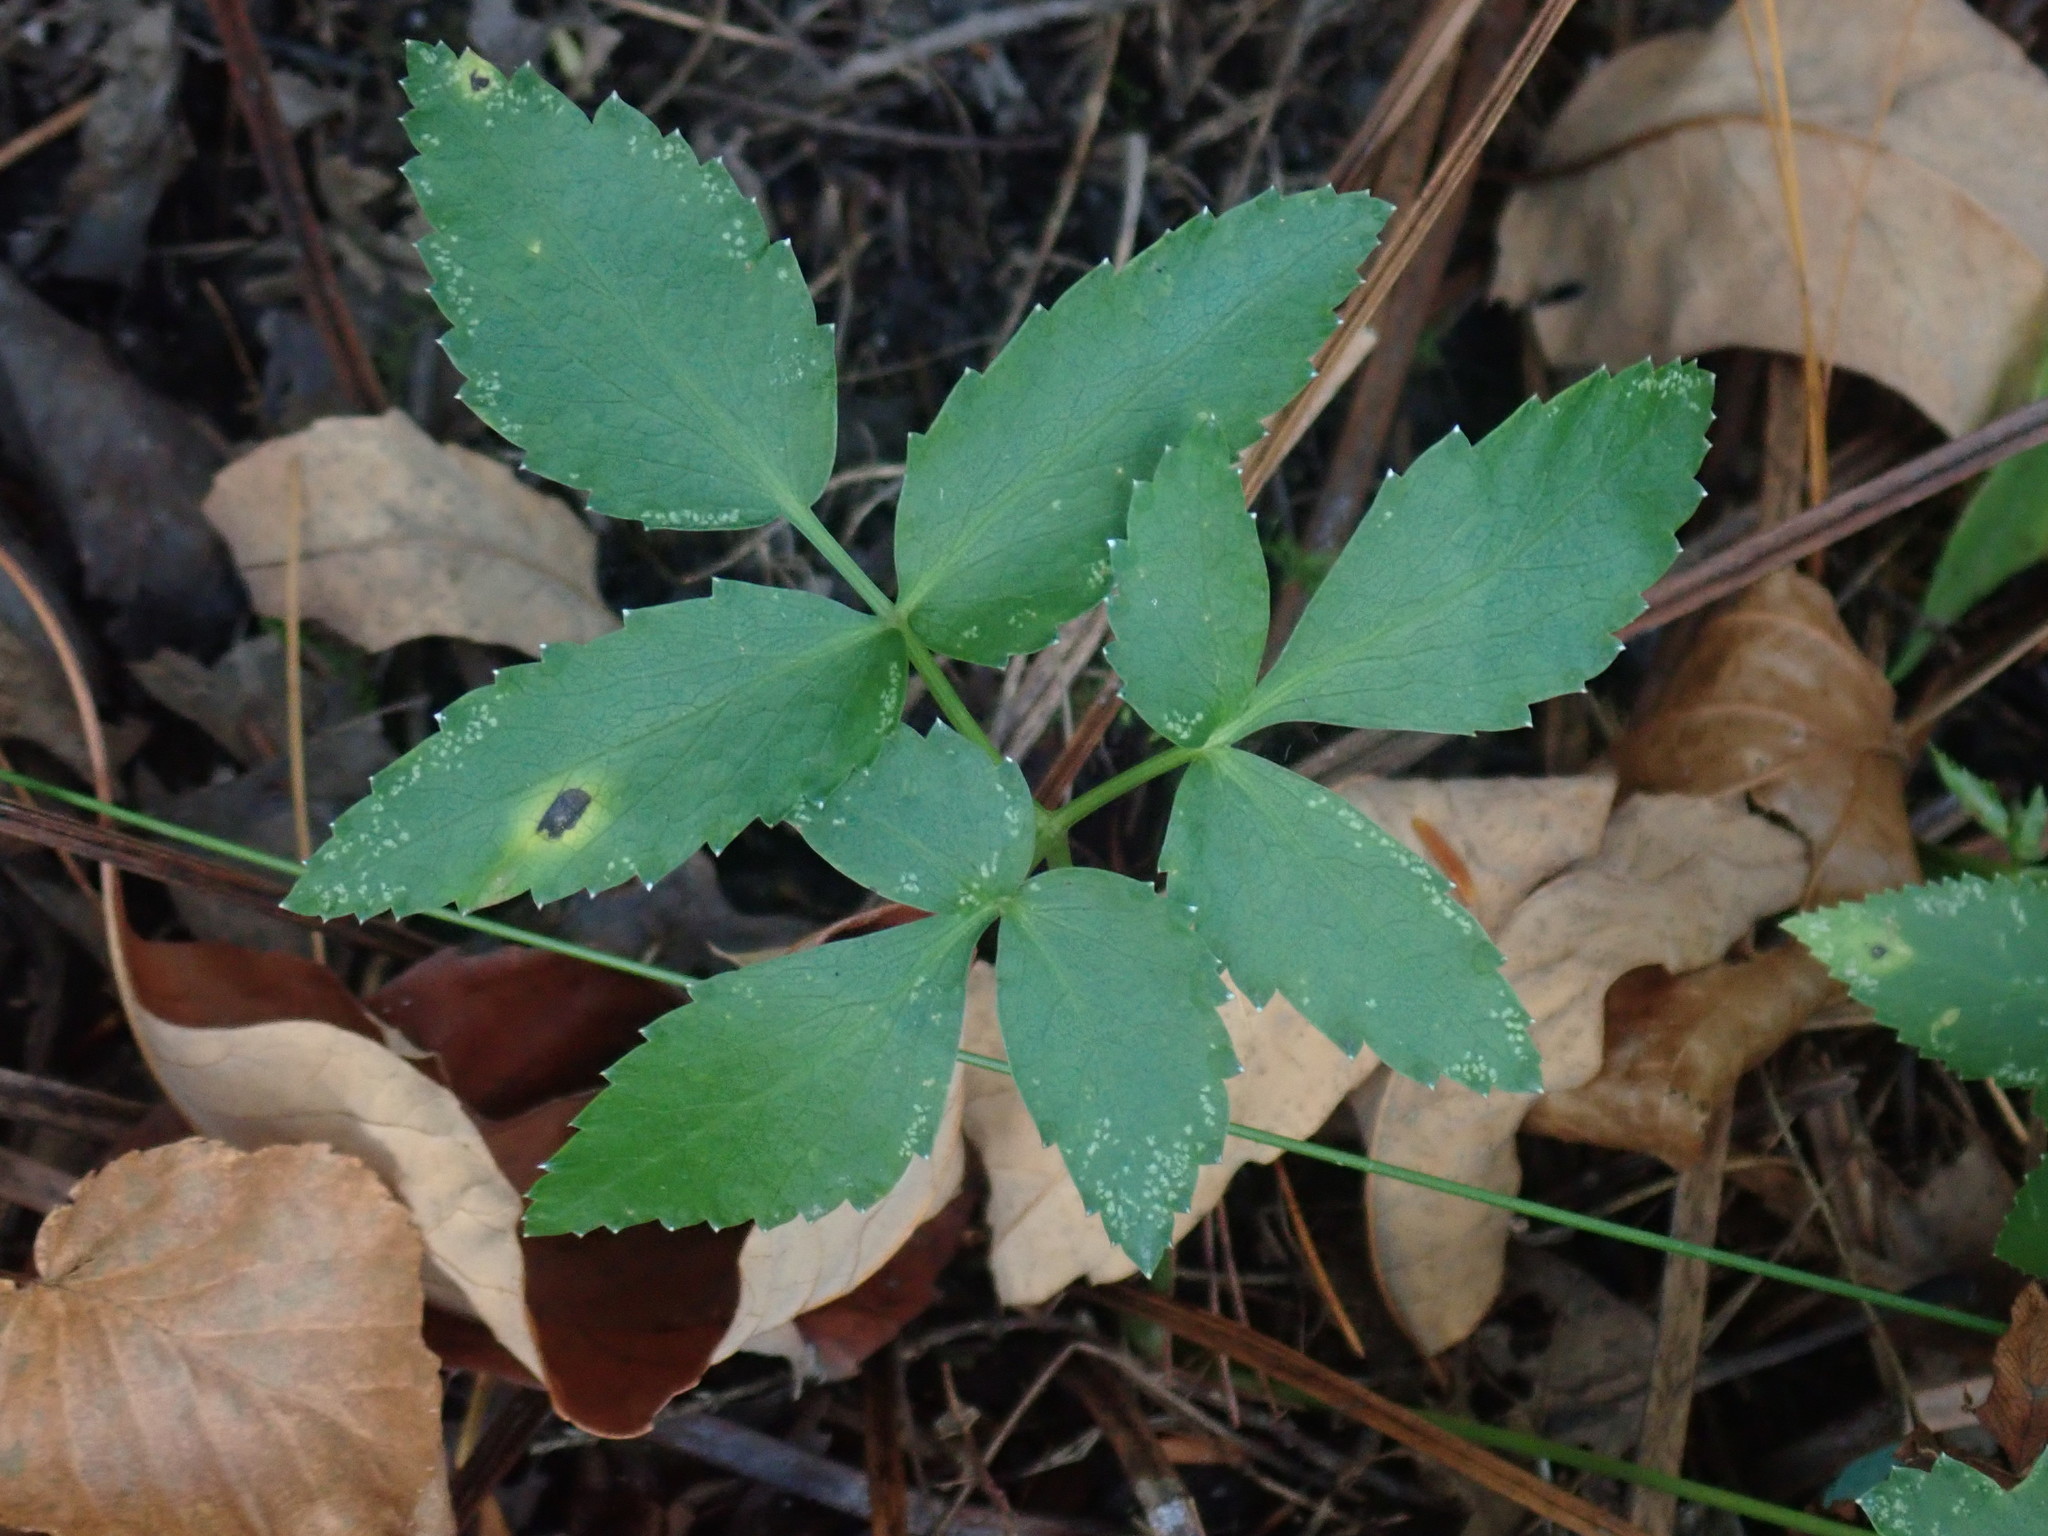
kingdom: Plantae
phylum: Tracheophyta
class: Magnoliopsida
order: Apiales
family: Apiaceae
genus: Zizia
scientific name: Zizia aurea
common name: Golden alexanders
